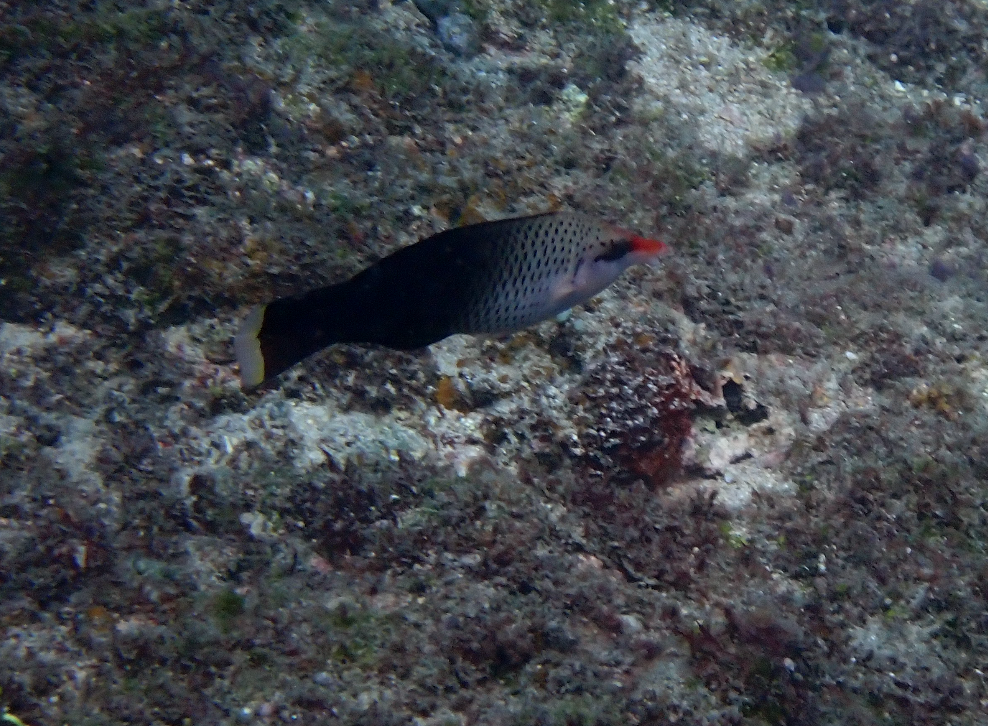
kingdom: Animalia
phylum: Chordata
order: Perciformes
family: Labridae
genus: Gomphosus
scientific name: Gomphosus varius
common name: Bird wrasse
